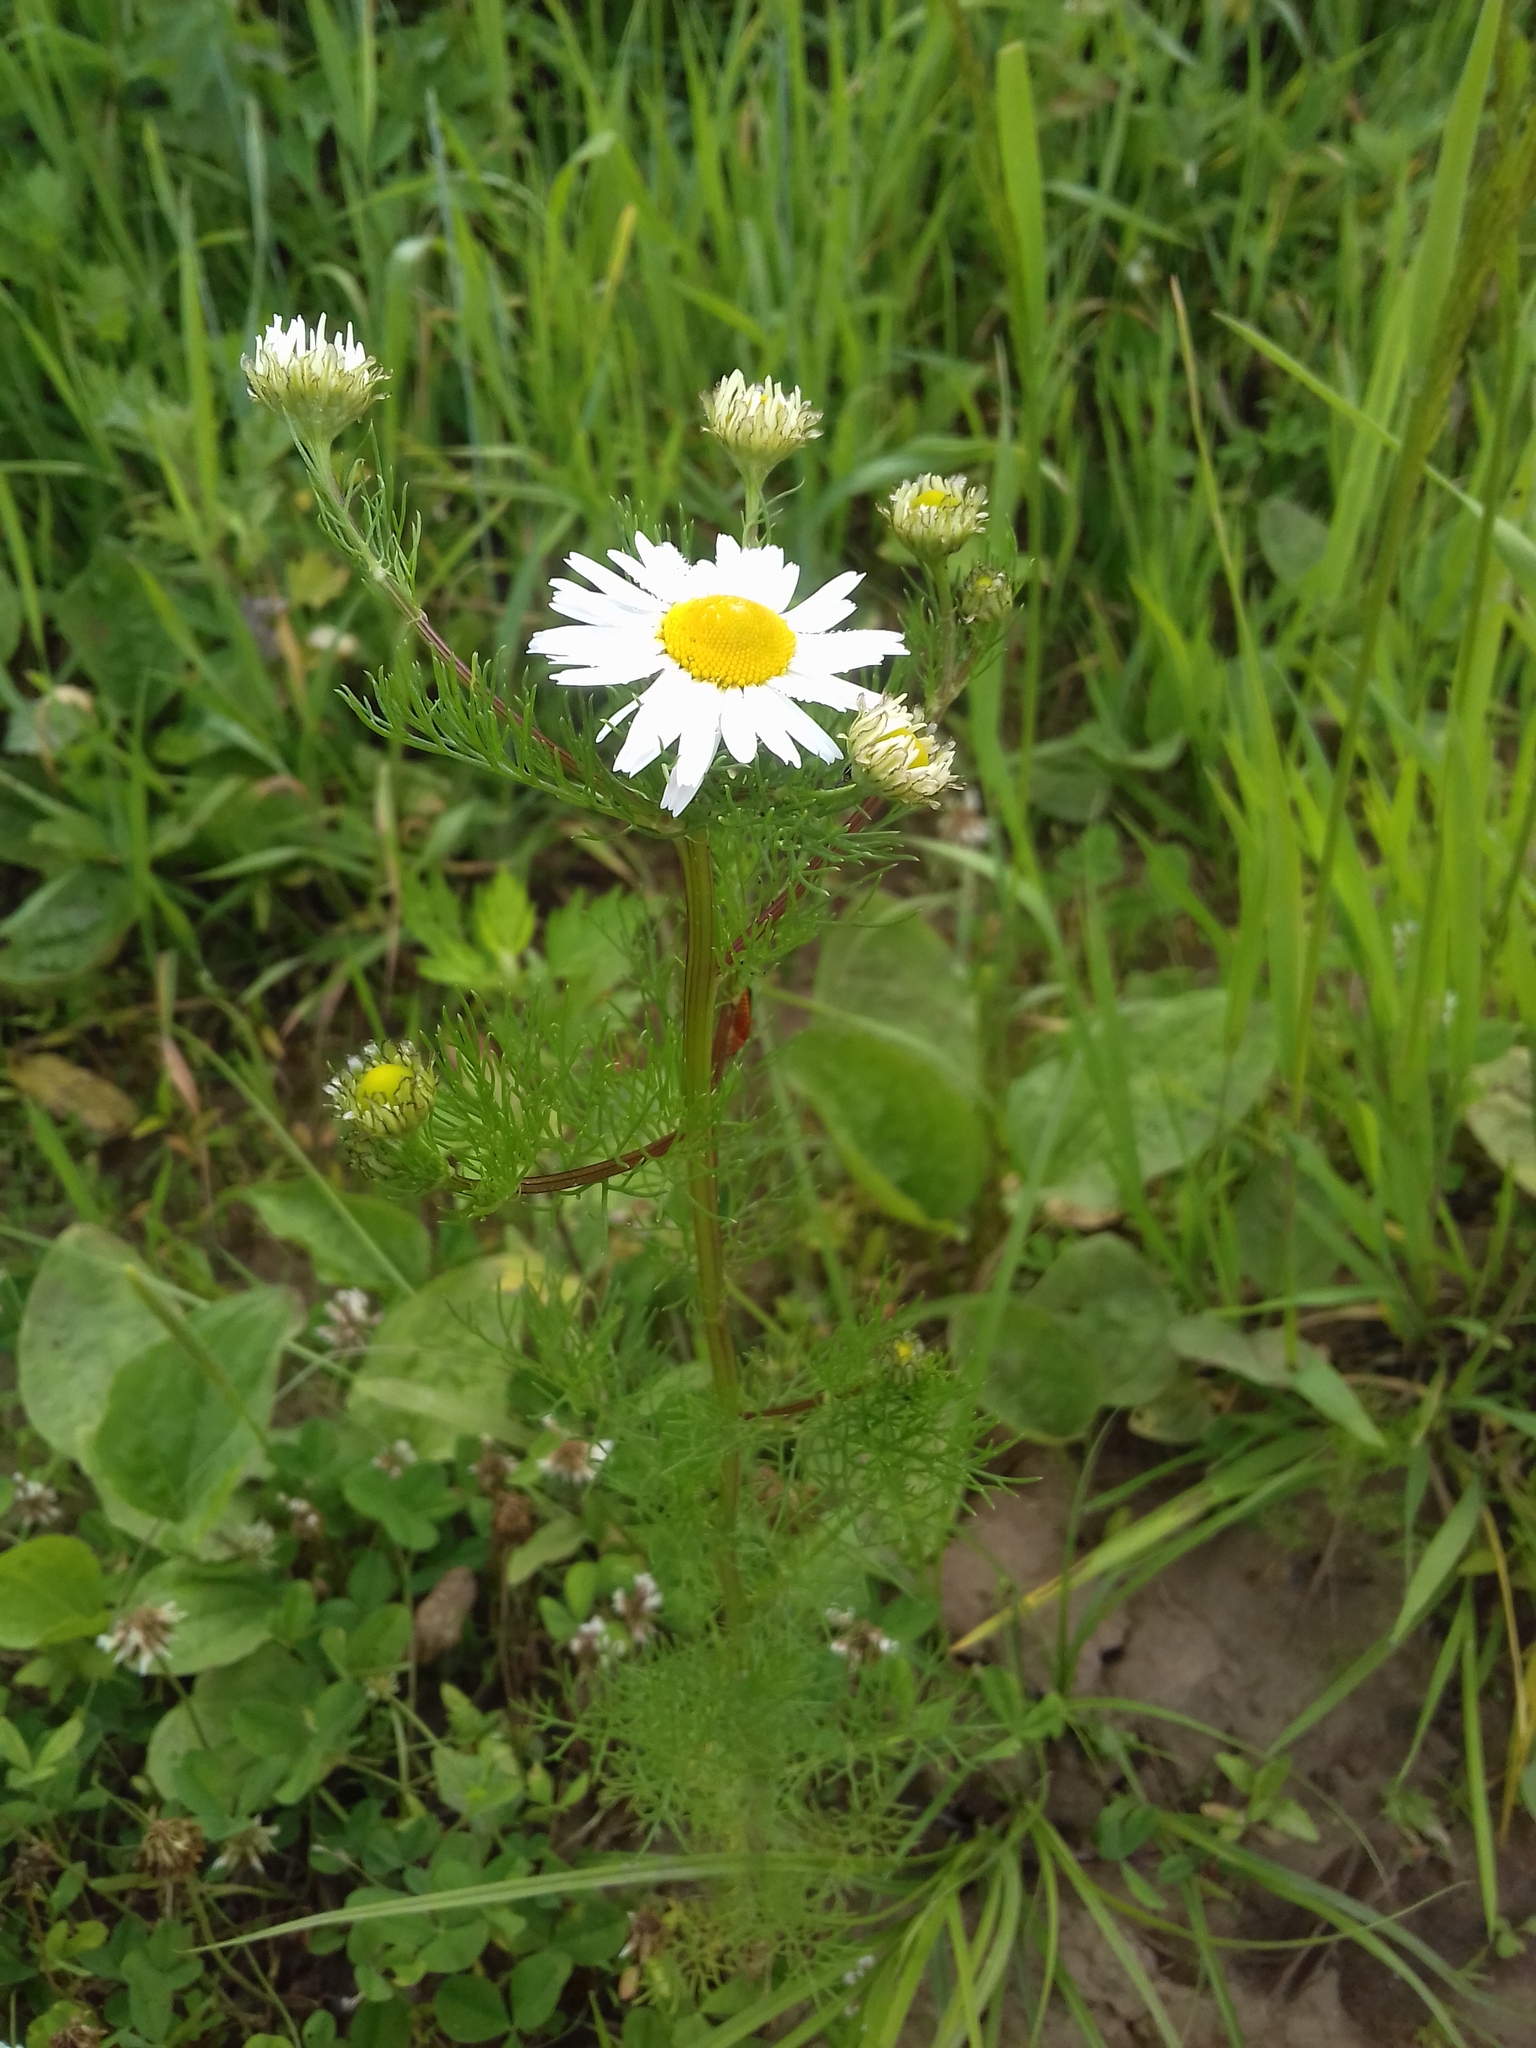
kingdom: Plantae
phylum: Tracheophyta
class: Magnoliopsida
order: Asterales
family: Asteraceae
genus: Tripleurospermum
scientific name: Tripleurospermum inodorum
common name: Scentless mayweed
